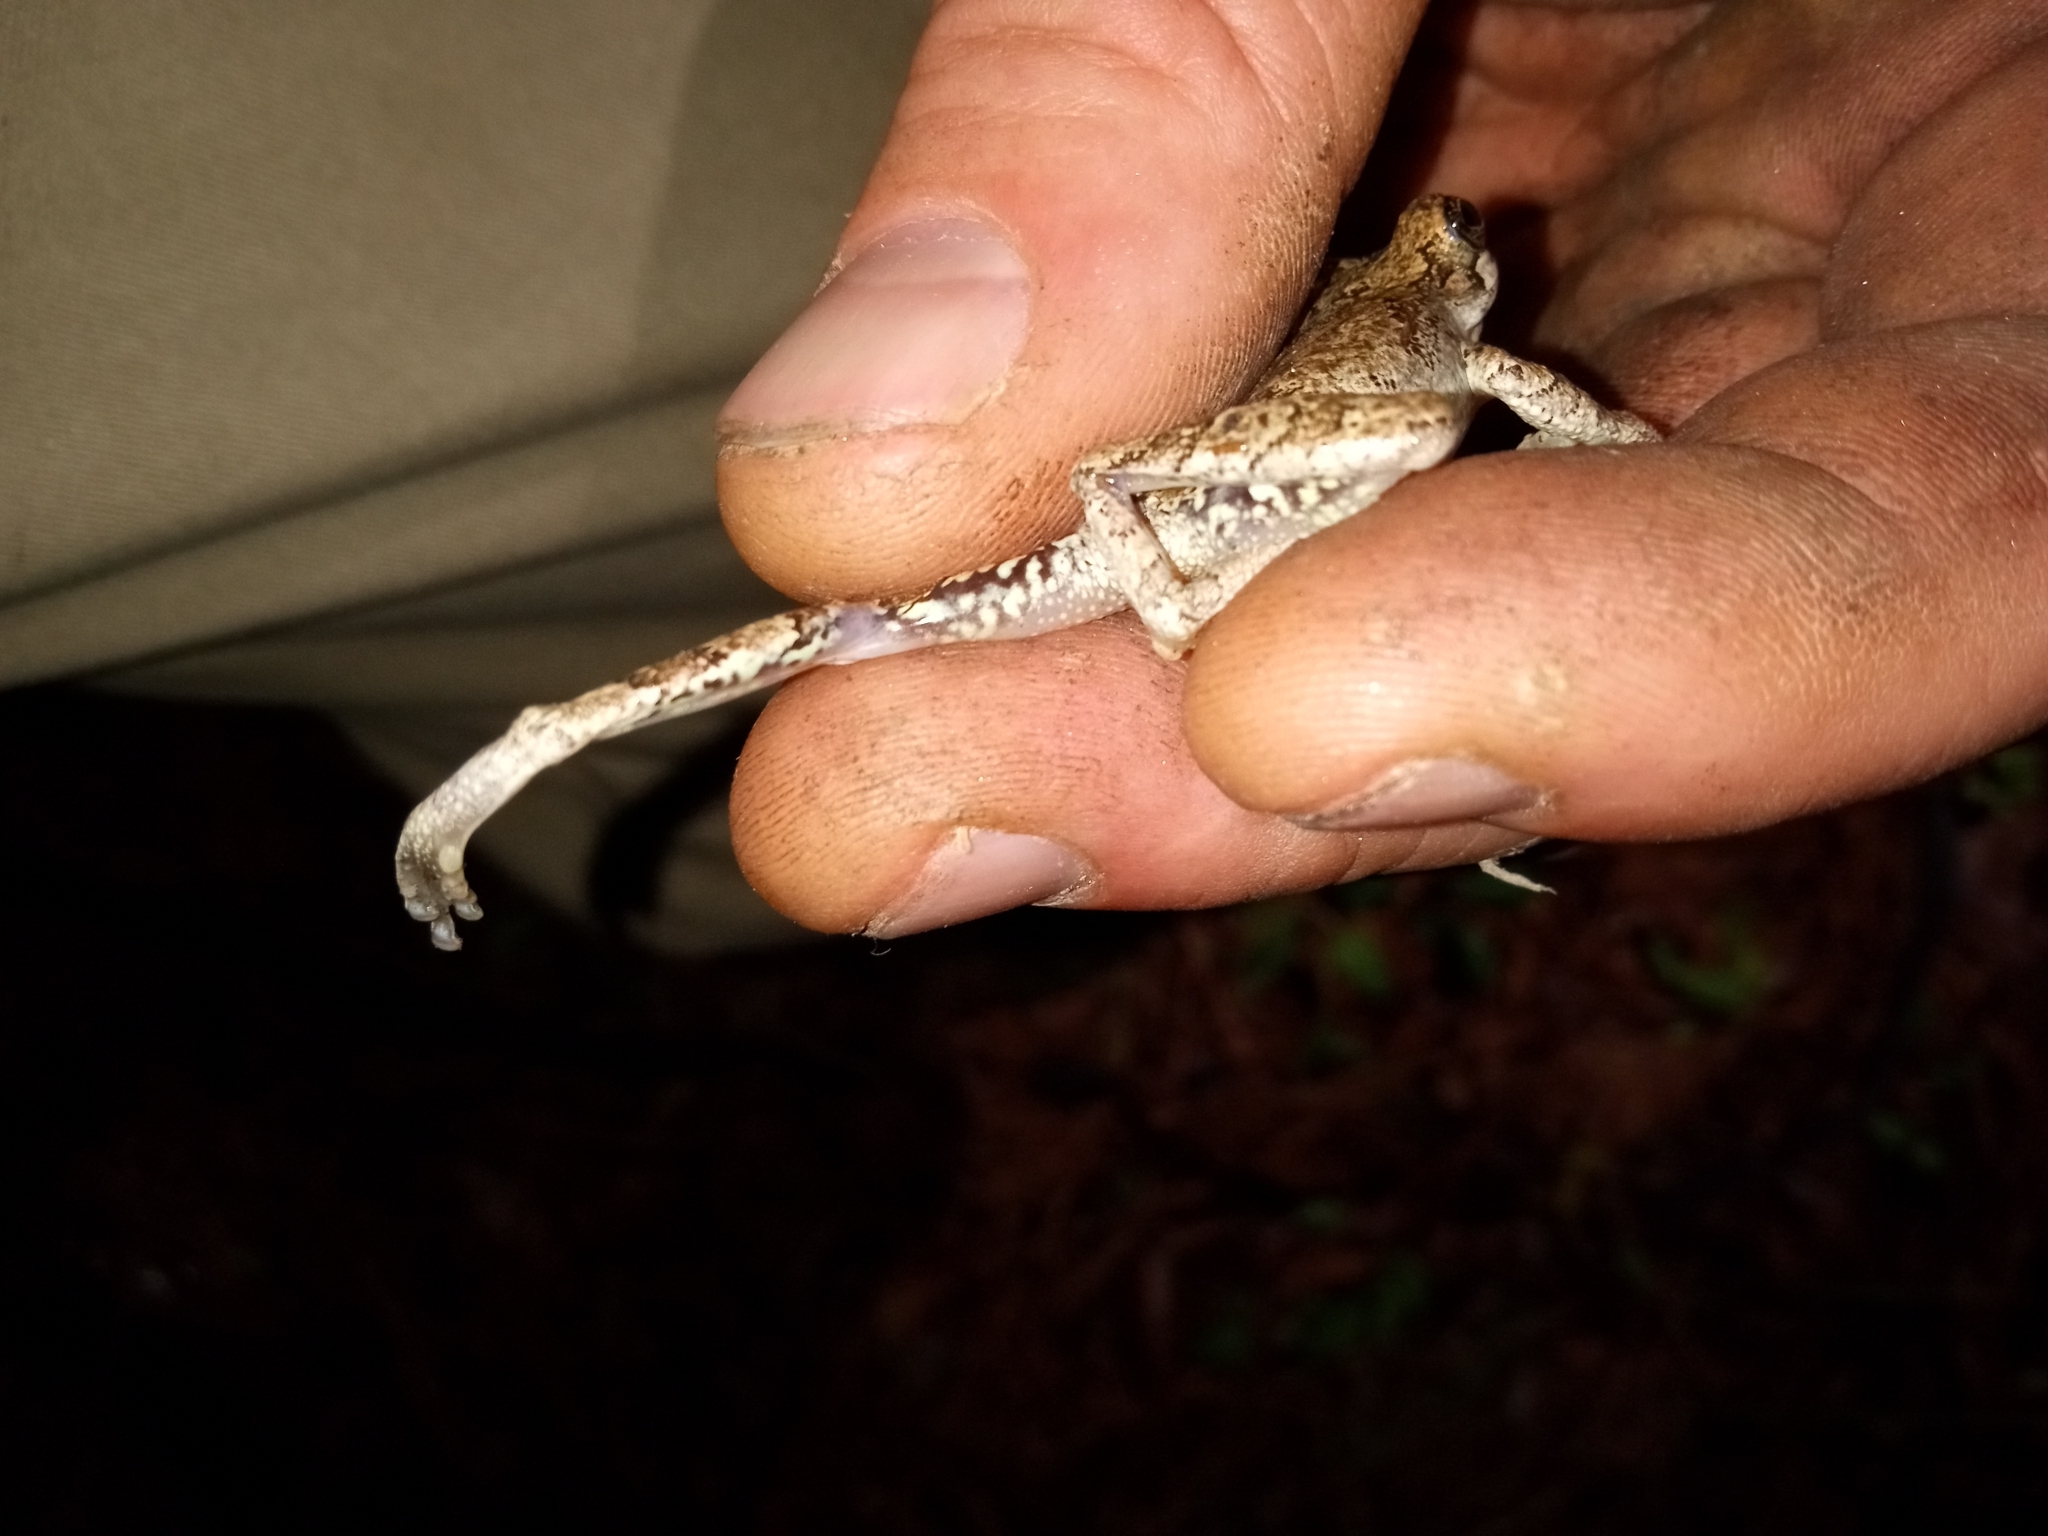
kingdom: Animalia
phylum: Chordata
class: Amphibia
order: Anura
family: Hylidae
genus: Dryophytes
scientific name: Dryophytes avivoca
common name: Bird-voiced treefrog
